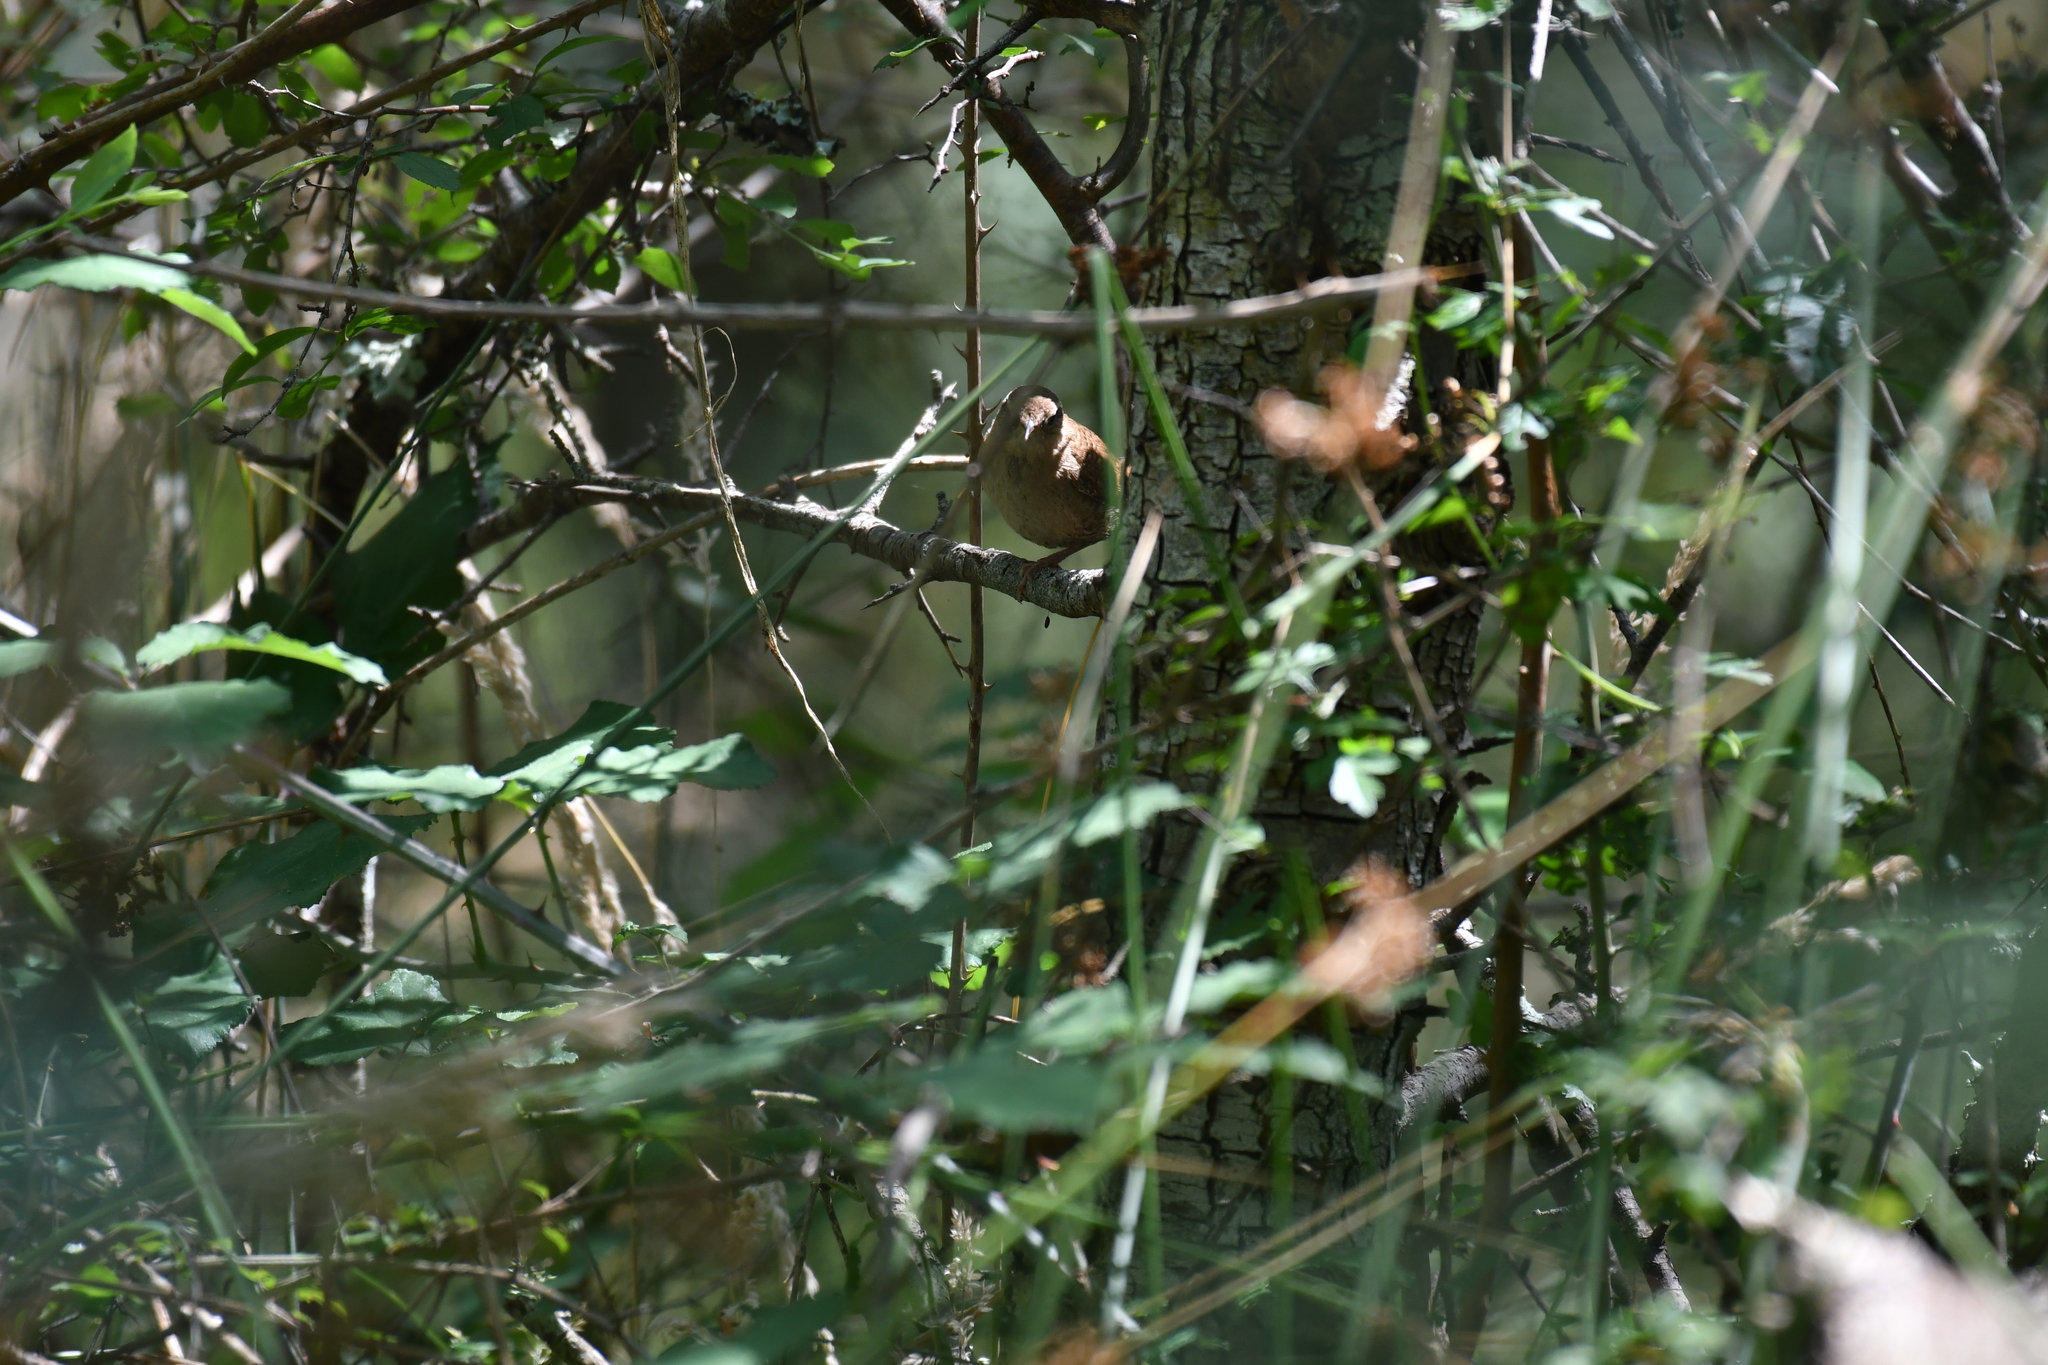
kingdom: Animalia
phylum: Chordata
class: Aves
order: Passeriformes
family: Troglodytidae
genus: Troglodytes
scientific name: Troglodytes troglodytes
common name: Eurasian wren
